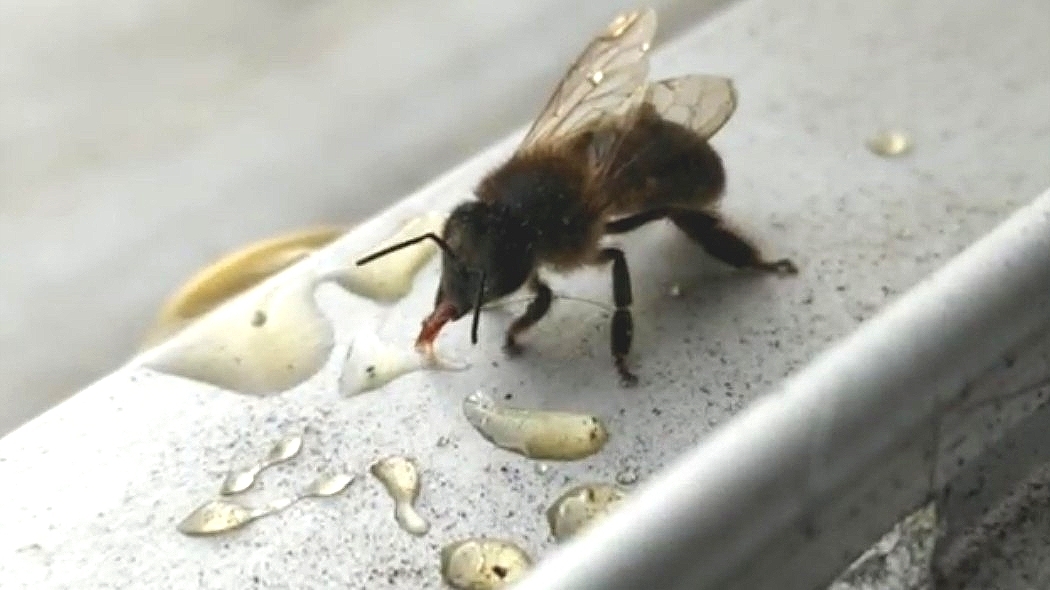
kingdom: Animalia
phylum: Arthropoda
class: Insecta
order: Hymenoptera
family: Apidae
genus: Apis
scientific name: Apis mellifera
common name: Honey bee
